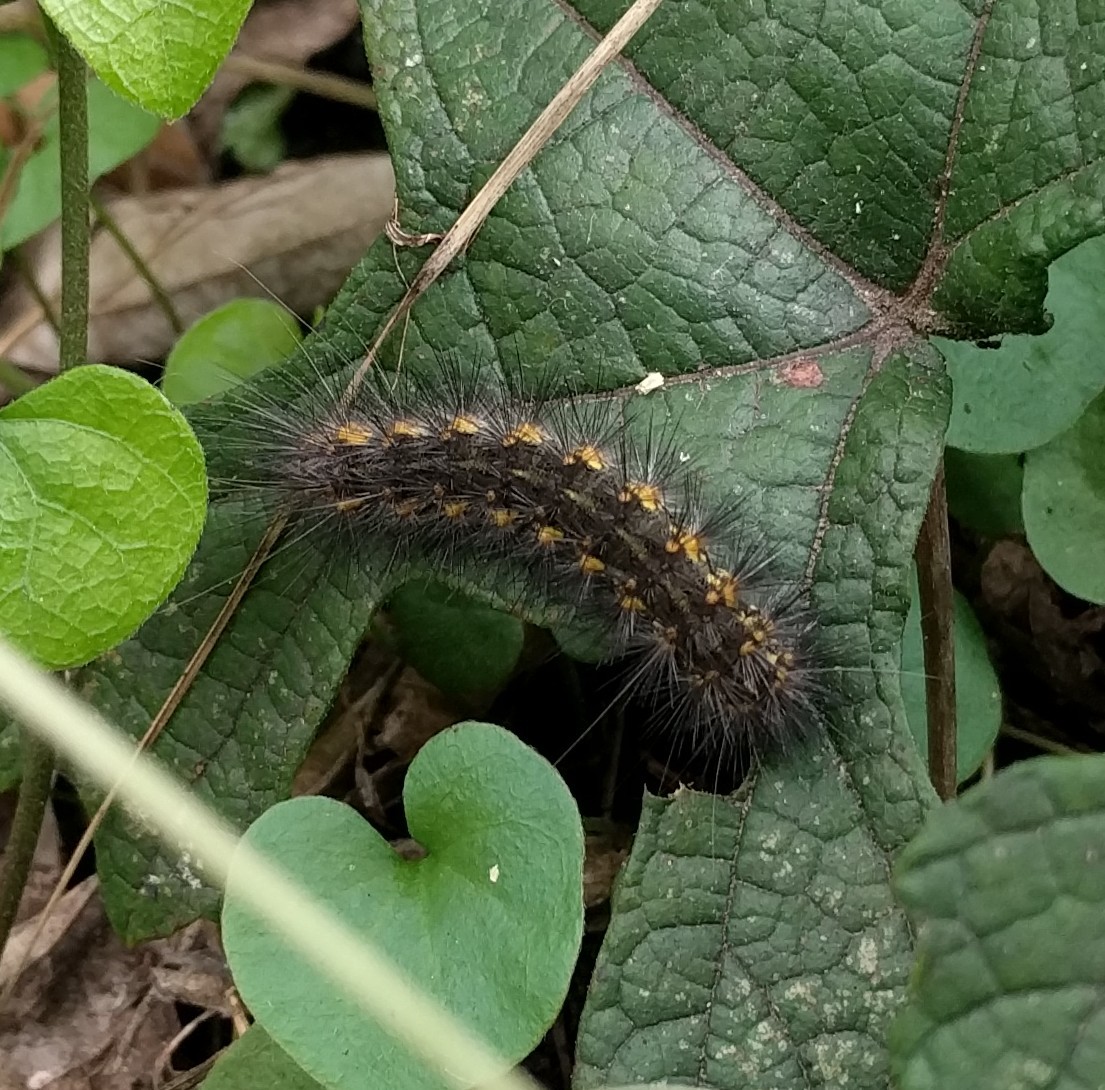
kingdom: Animalia
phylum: Arthropoda
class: Insecta
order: Lepidoptera
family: Erebidae
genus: Estigmene
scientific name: Estigmene acrea
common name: Salt marsh moth
